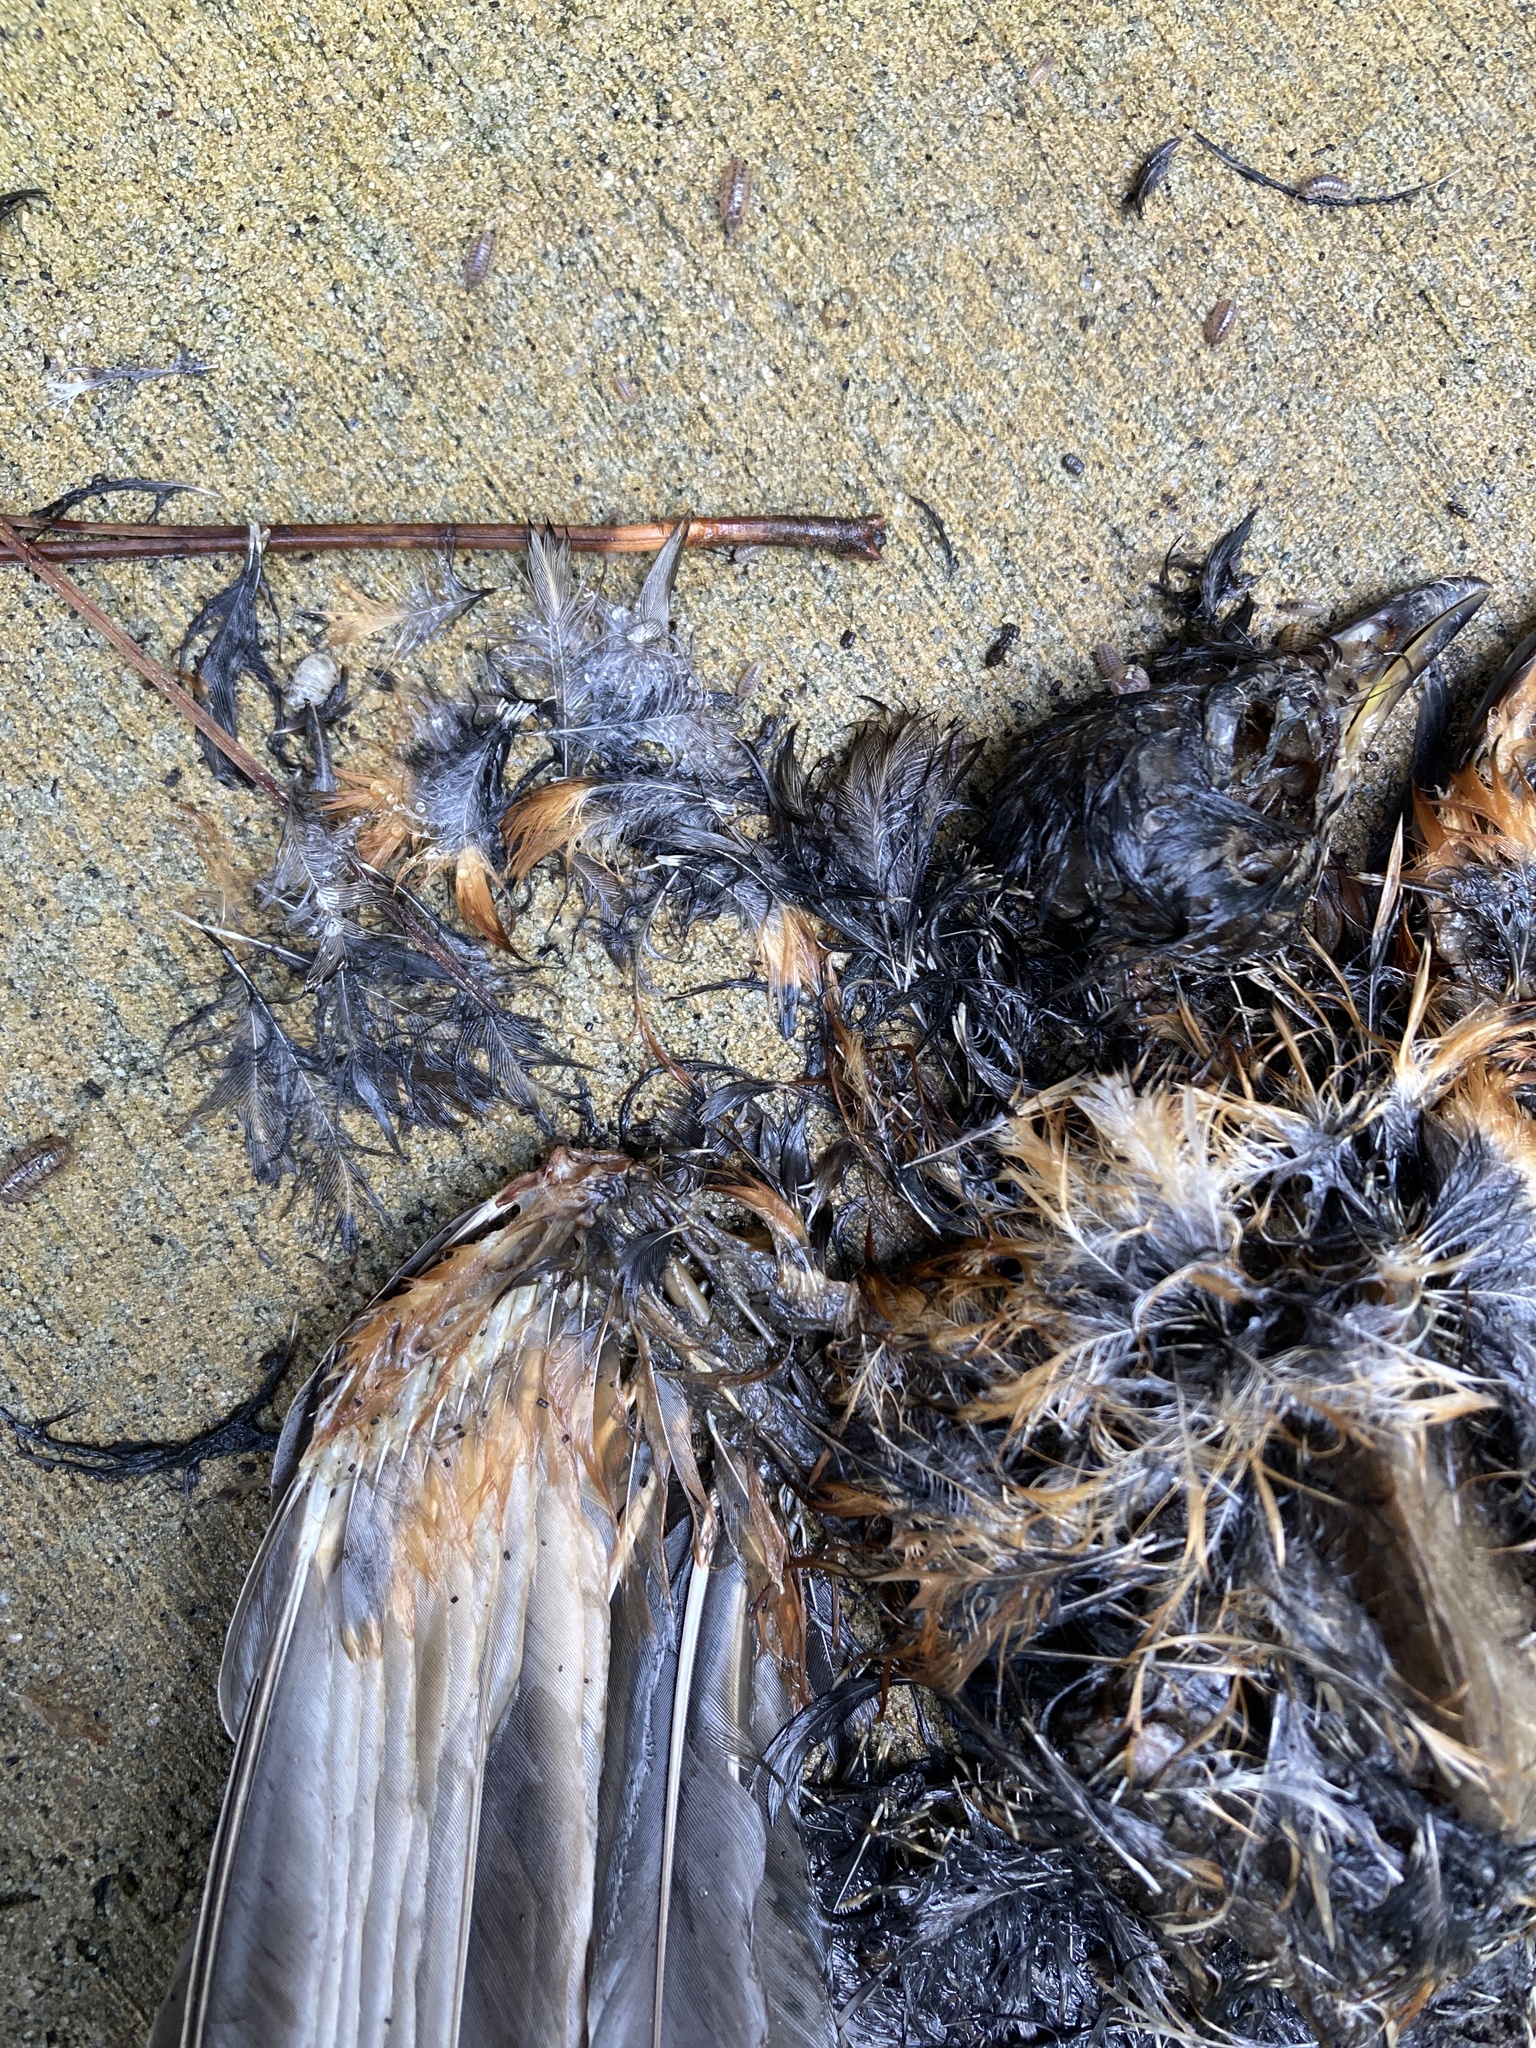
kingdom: Animalia
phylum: Chordata
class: Aves
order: Passeriformes
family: Turdidae
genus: Turdus
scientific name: Turdus migratorius
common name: American robin
